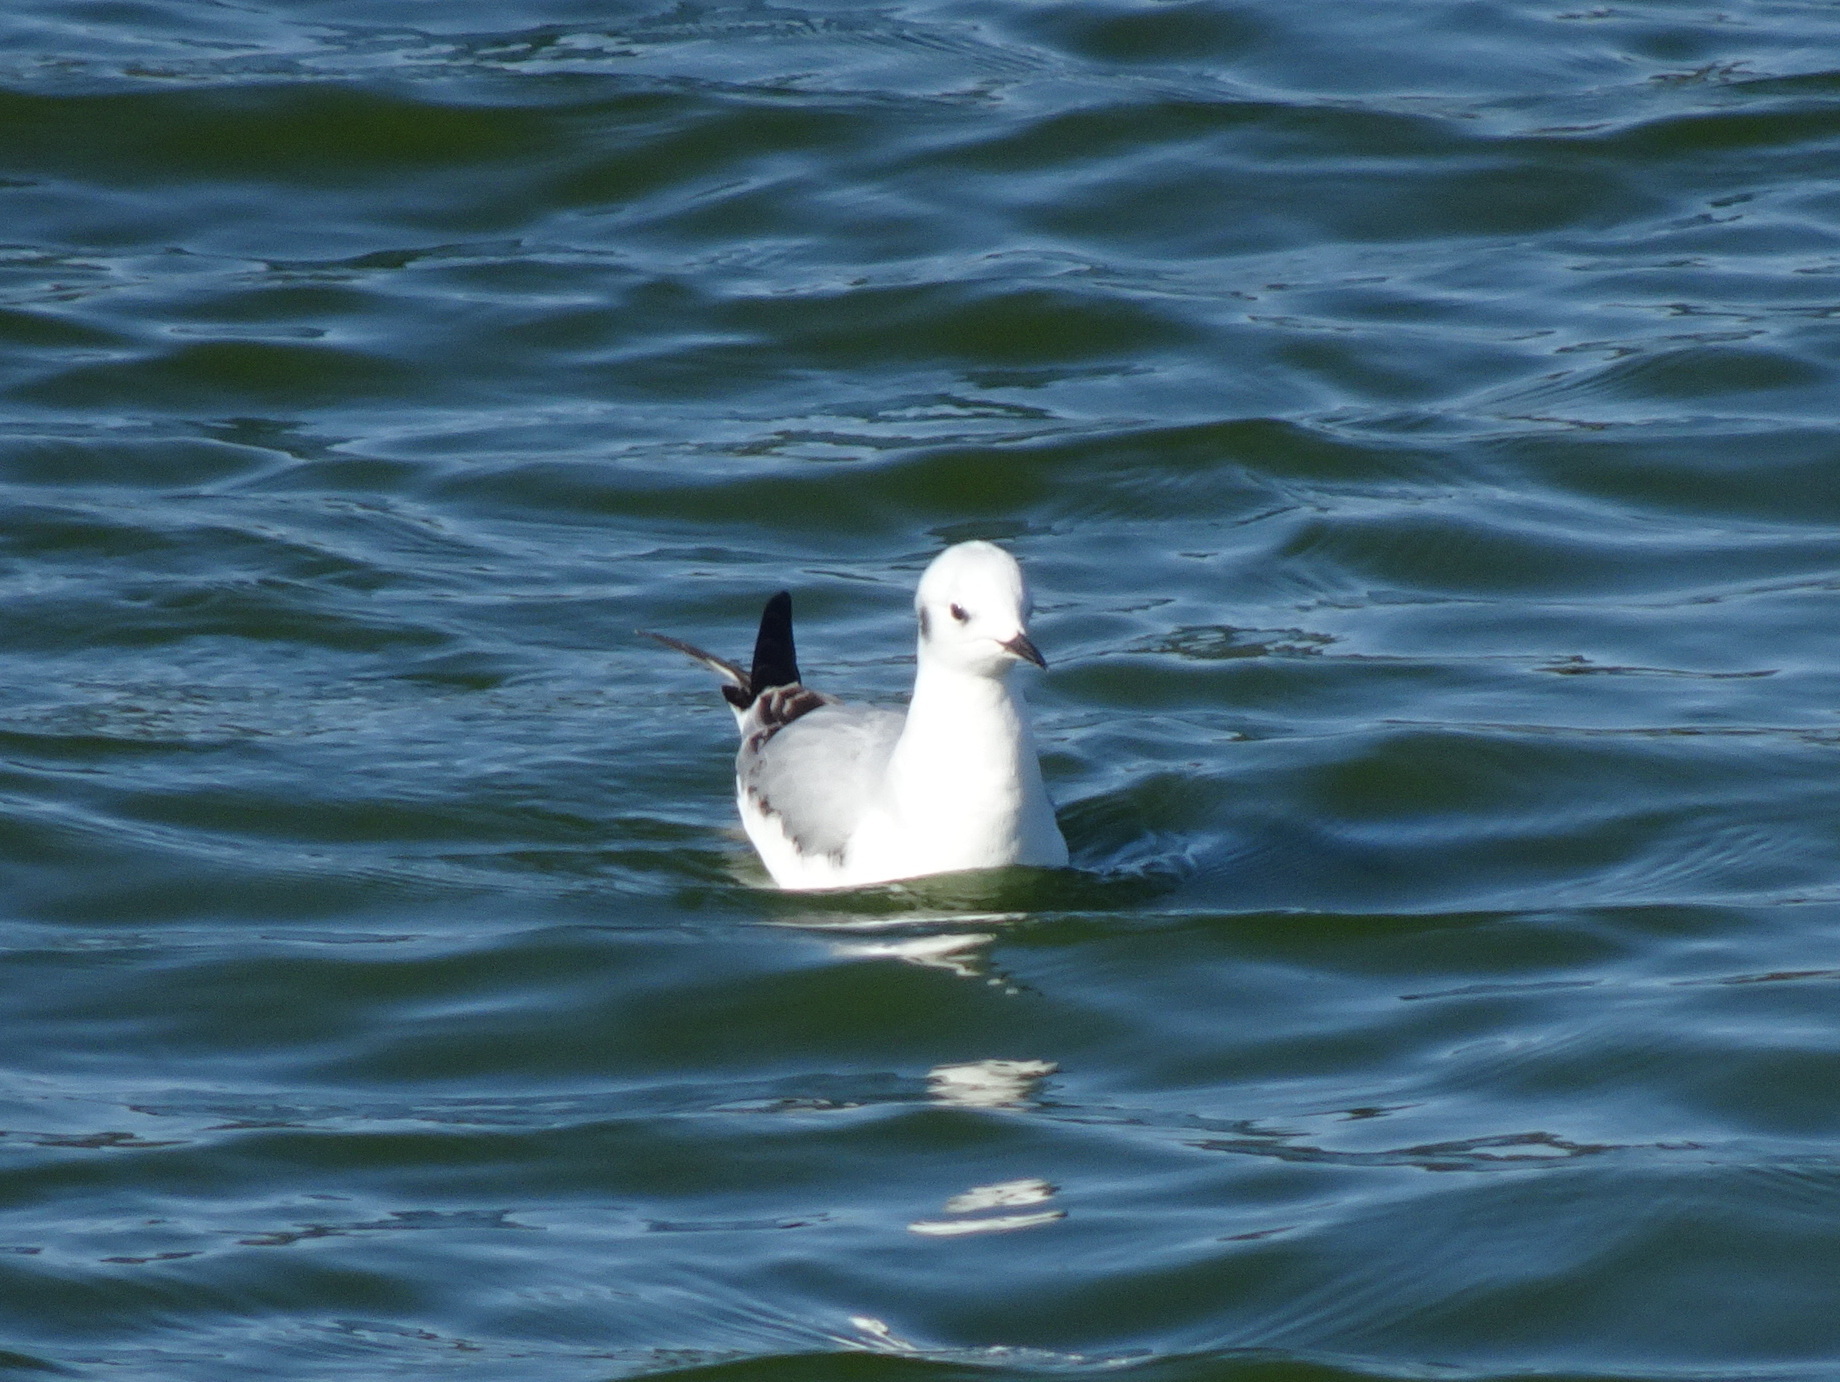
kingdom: Animalia
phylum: Chordata
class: Aves
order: Charadriiformes
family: Laridae
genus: Chroicocephalus
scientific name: Chroicocephalus philadelphia
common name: Bonaparte's gull
